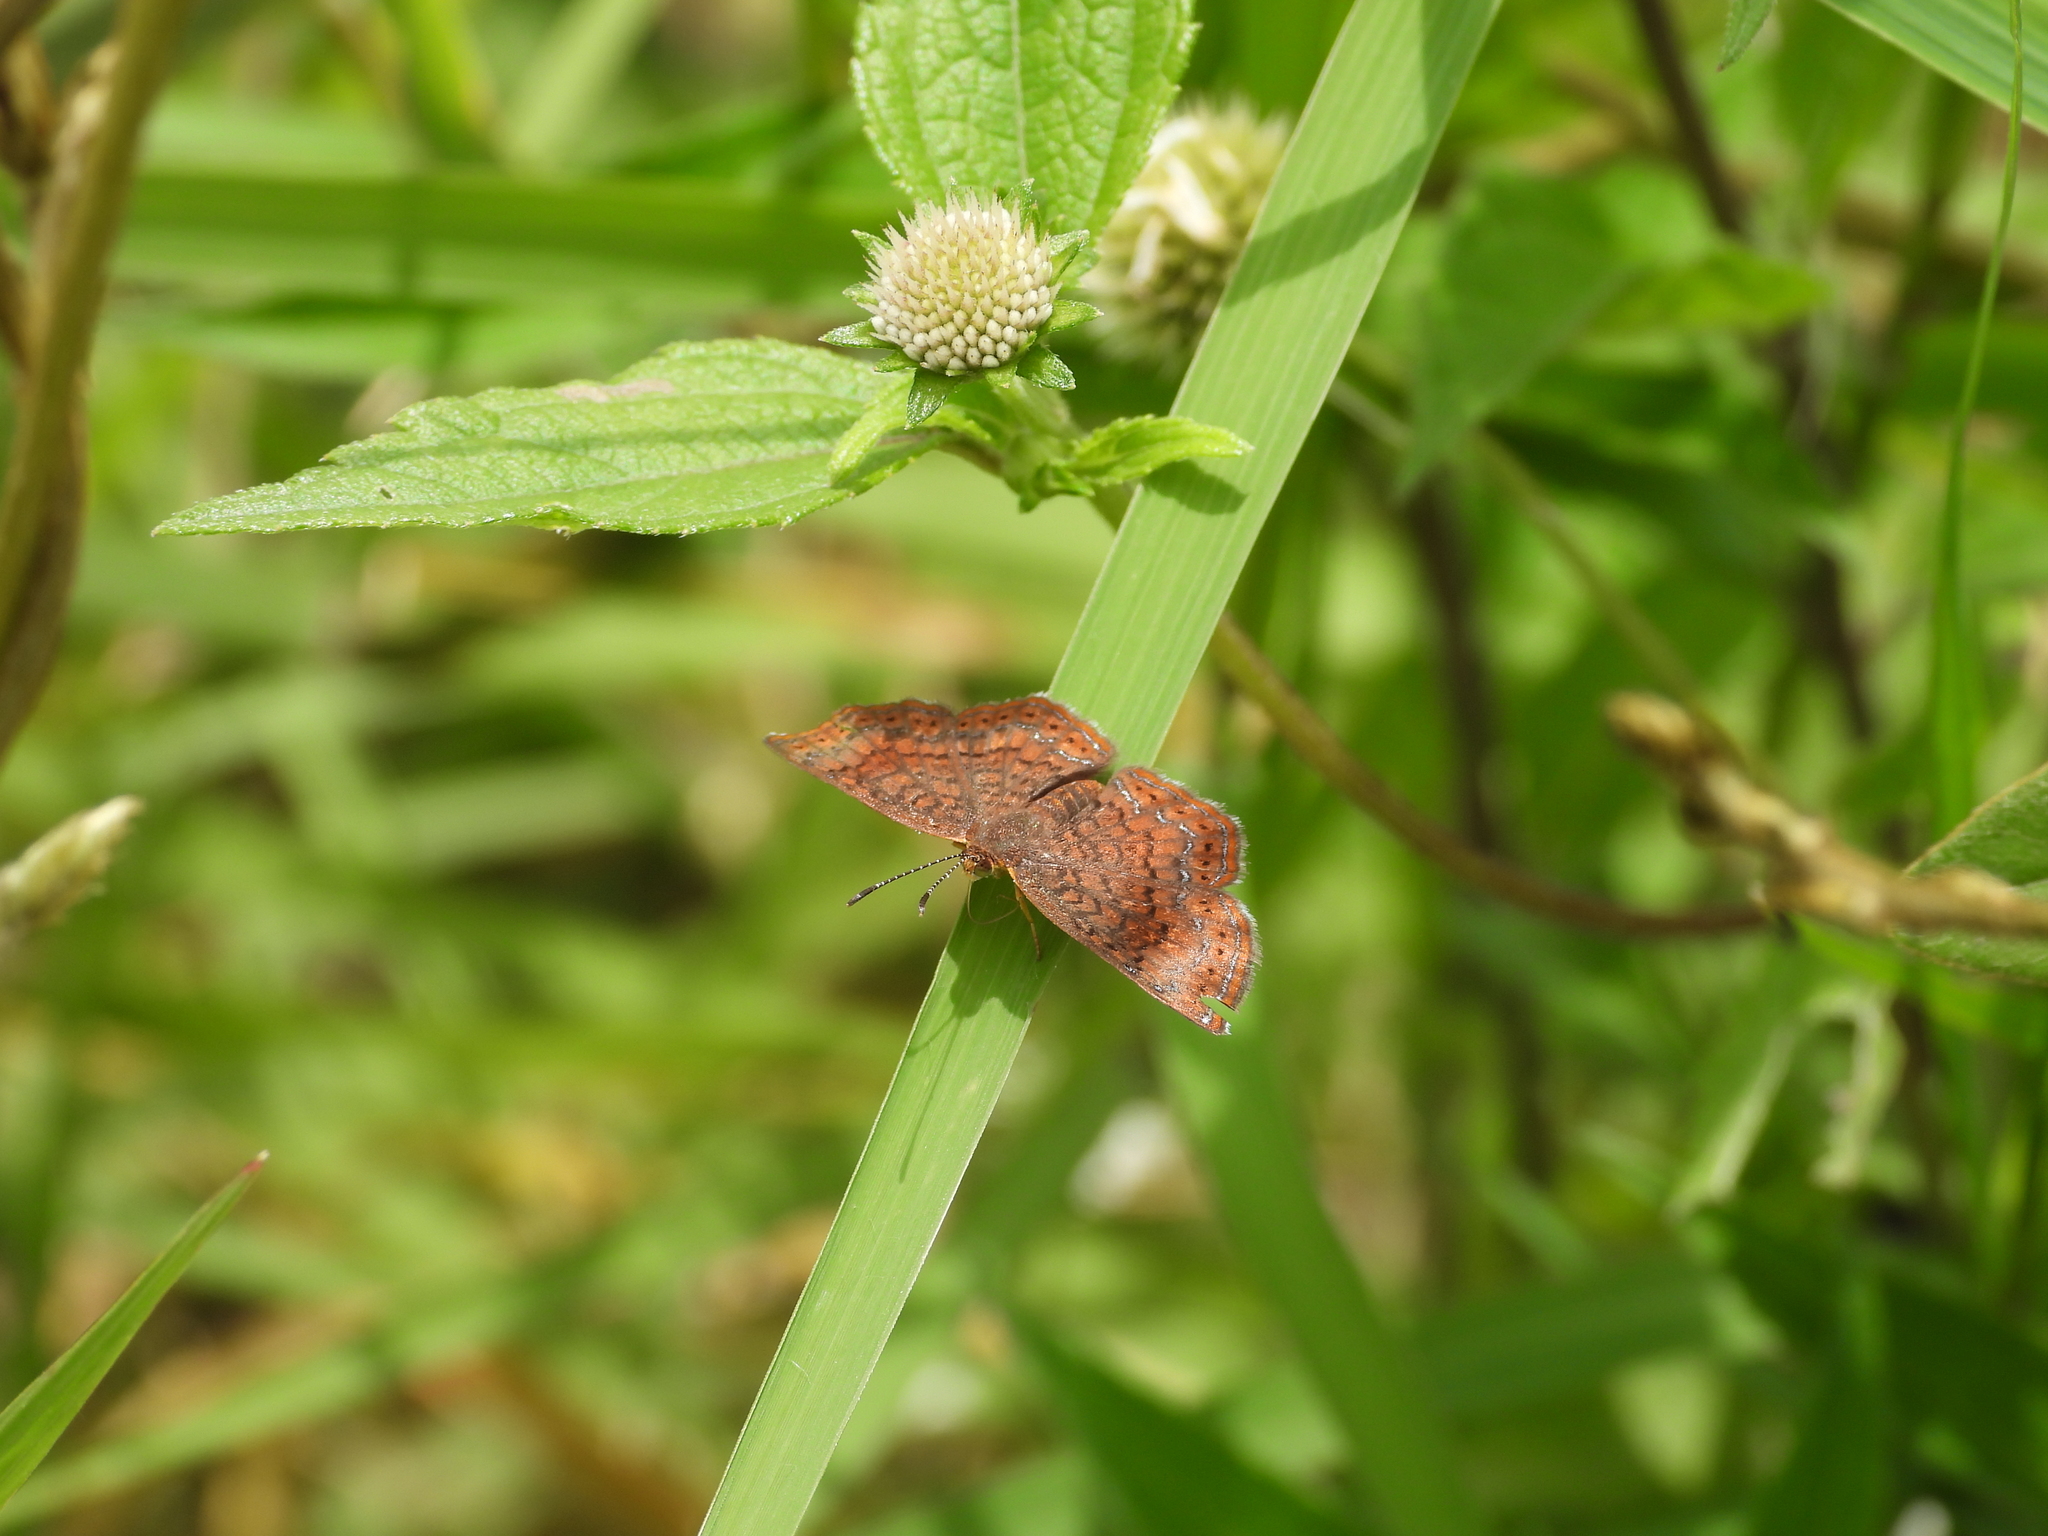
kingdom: Animalia
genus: Calephelis
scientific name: Calephelis
